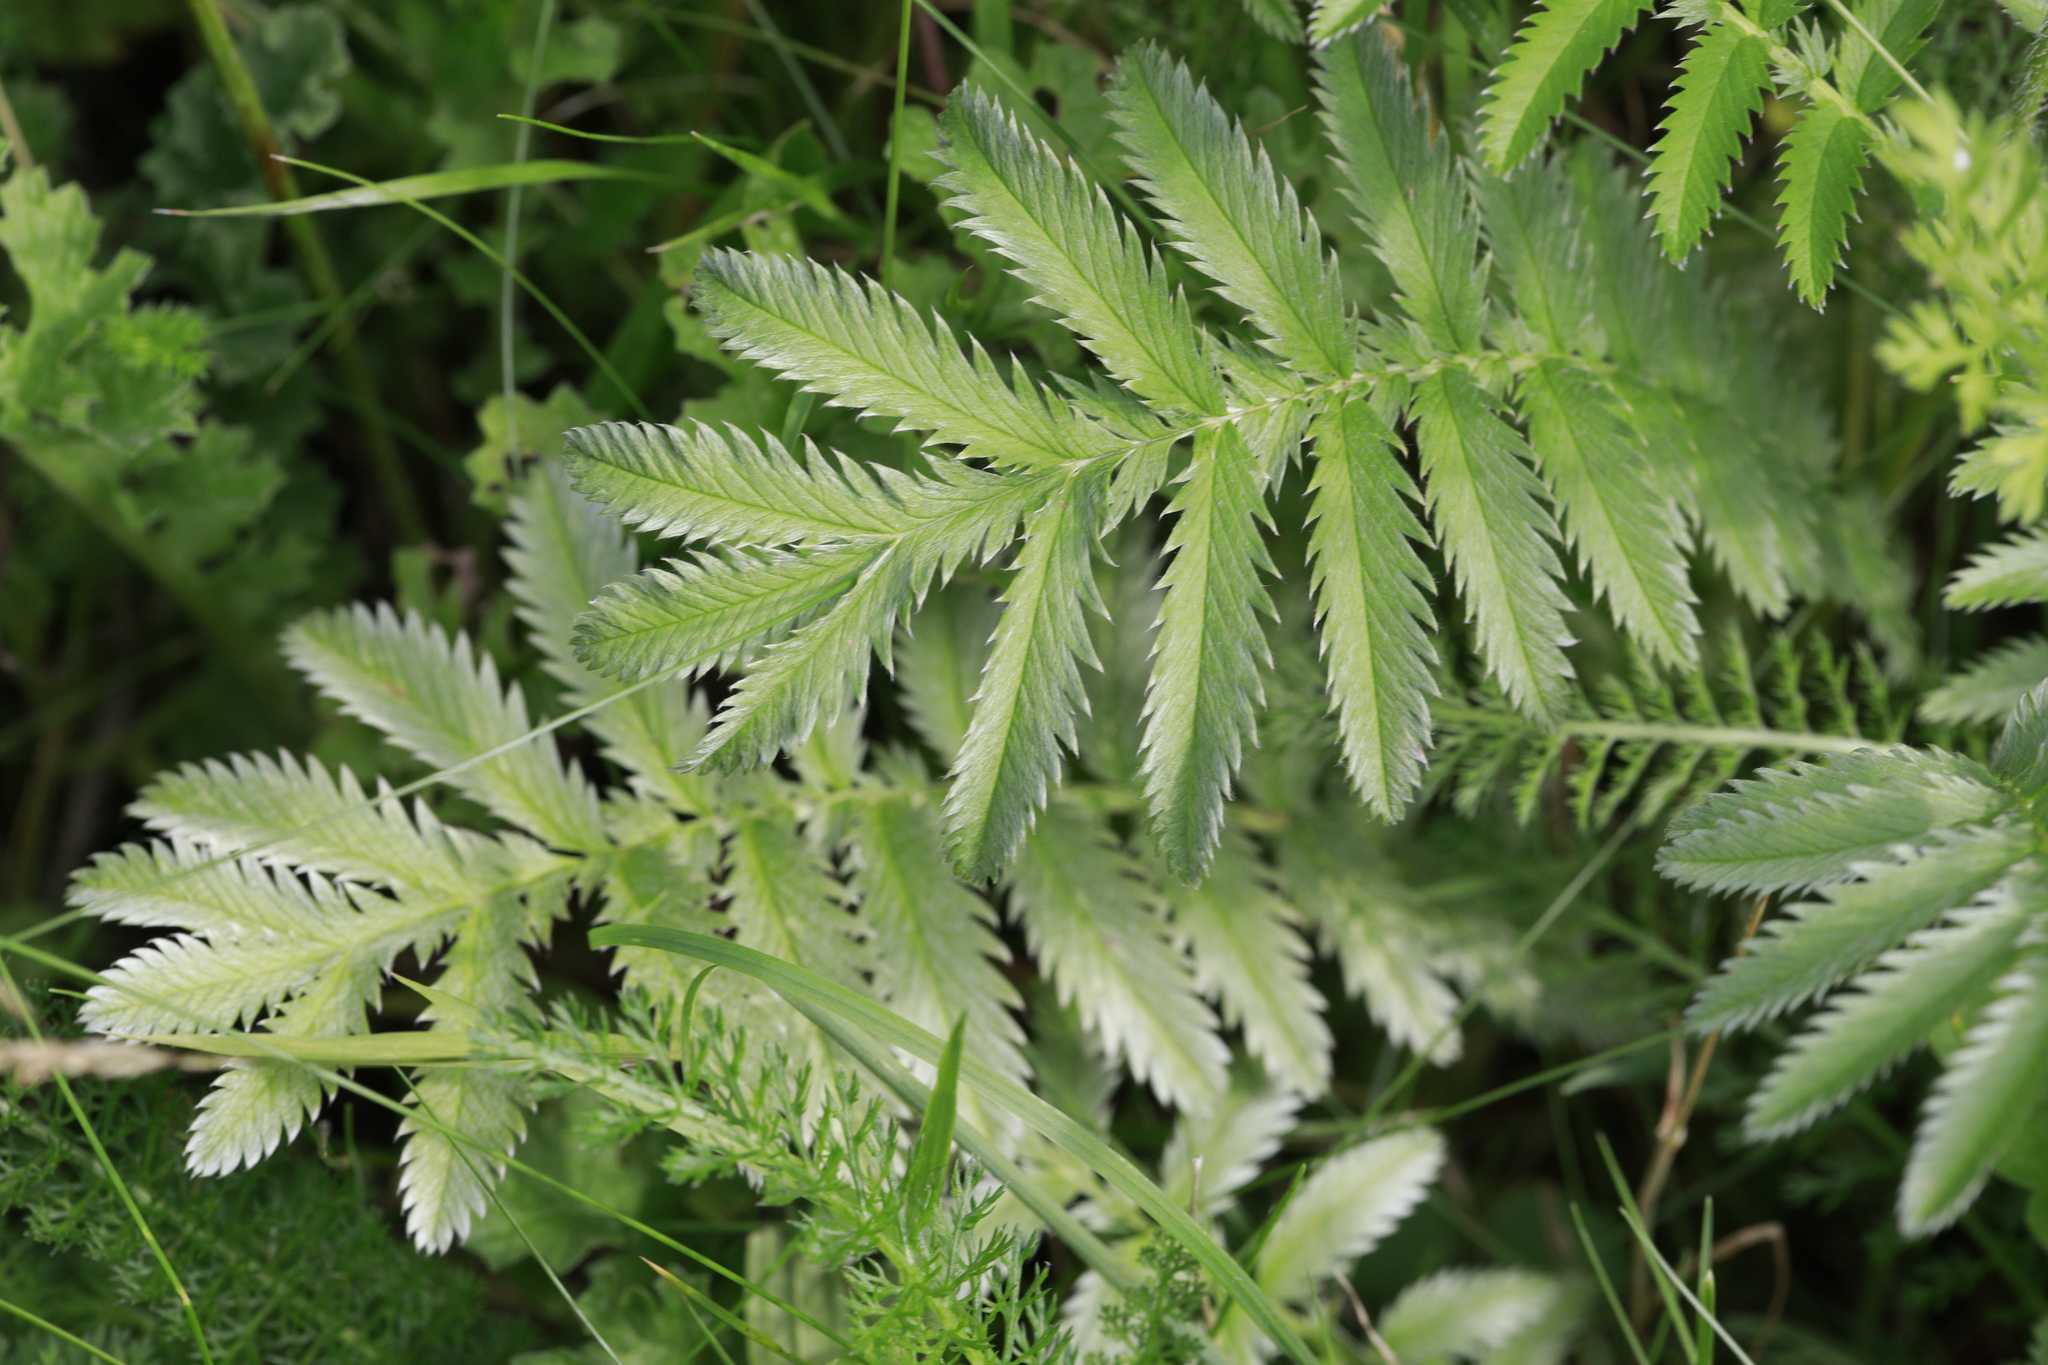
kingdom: Plantae
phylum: Tracheophyta
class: Magnoliopsida
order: Rosales
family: Rosaceae
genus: Argentina
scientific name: Argentina anserina
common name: Common silverweed
